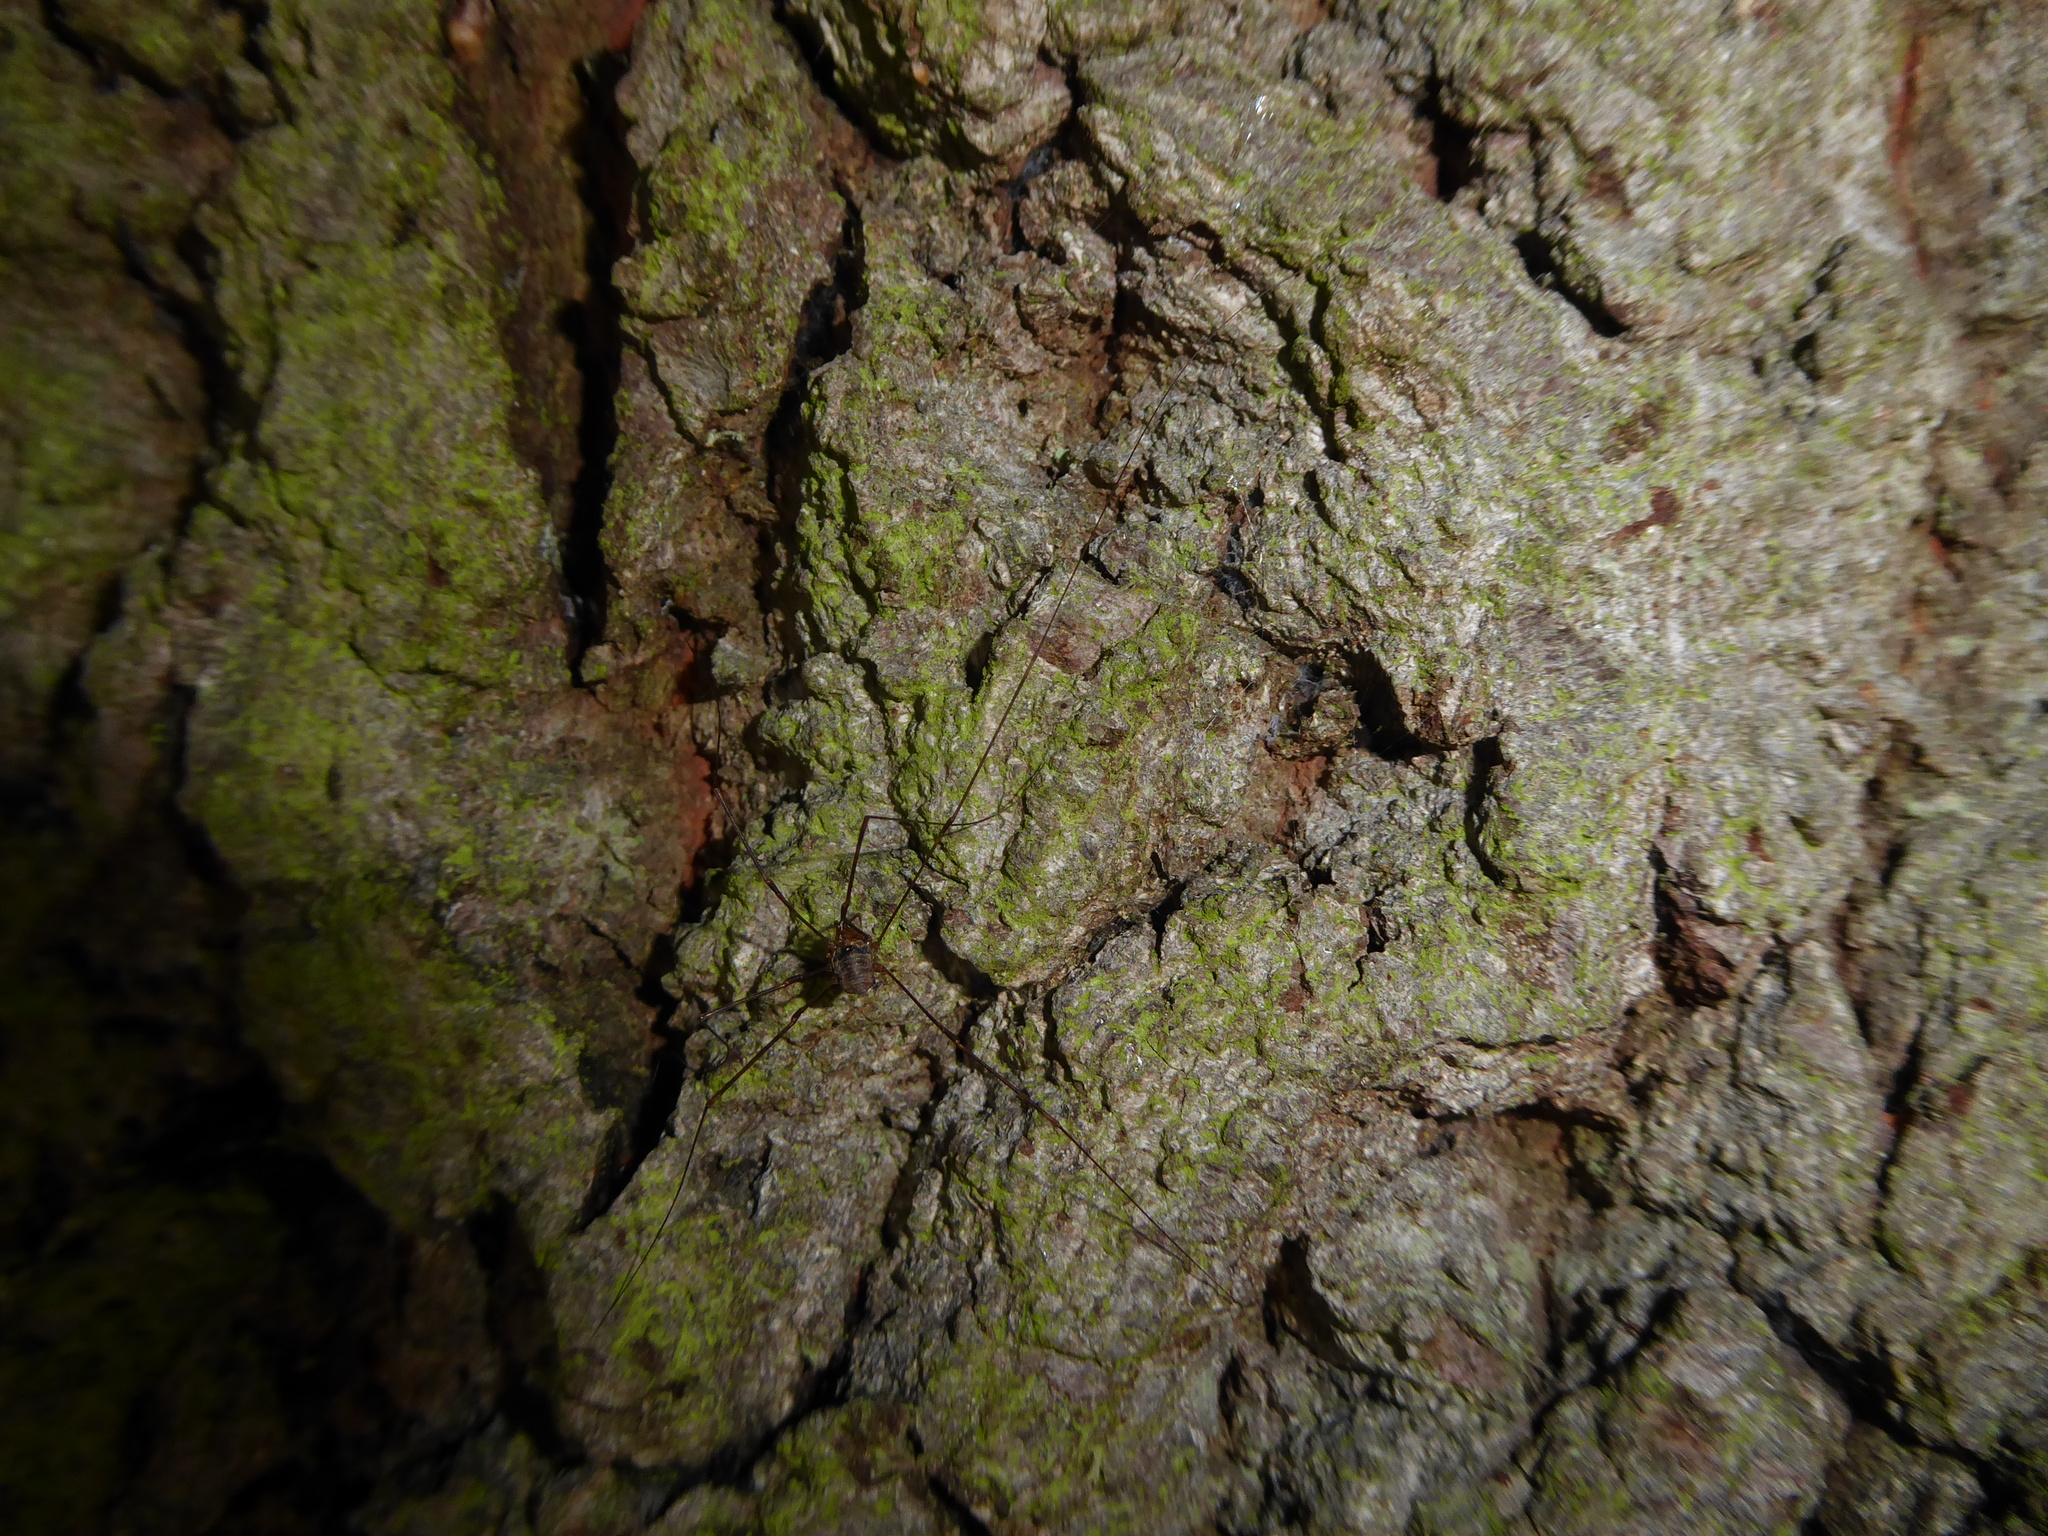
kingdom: Animalia
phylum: Arthropoda
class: Arachnida
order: Opiliones
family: Phalangiidae
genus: Dicranopalpus
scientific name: Dicranopalpus
